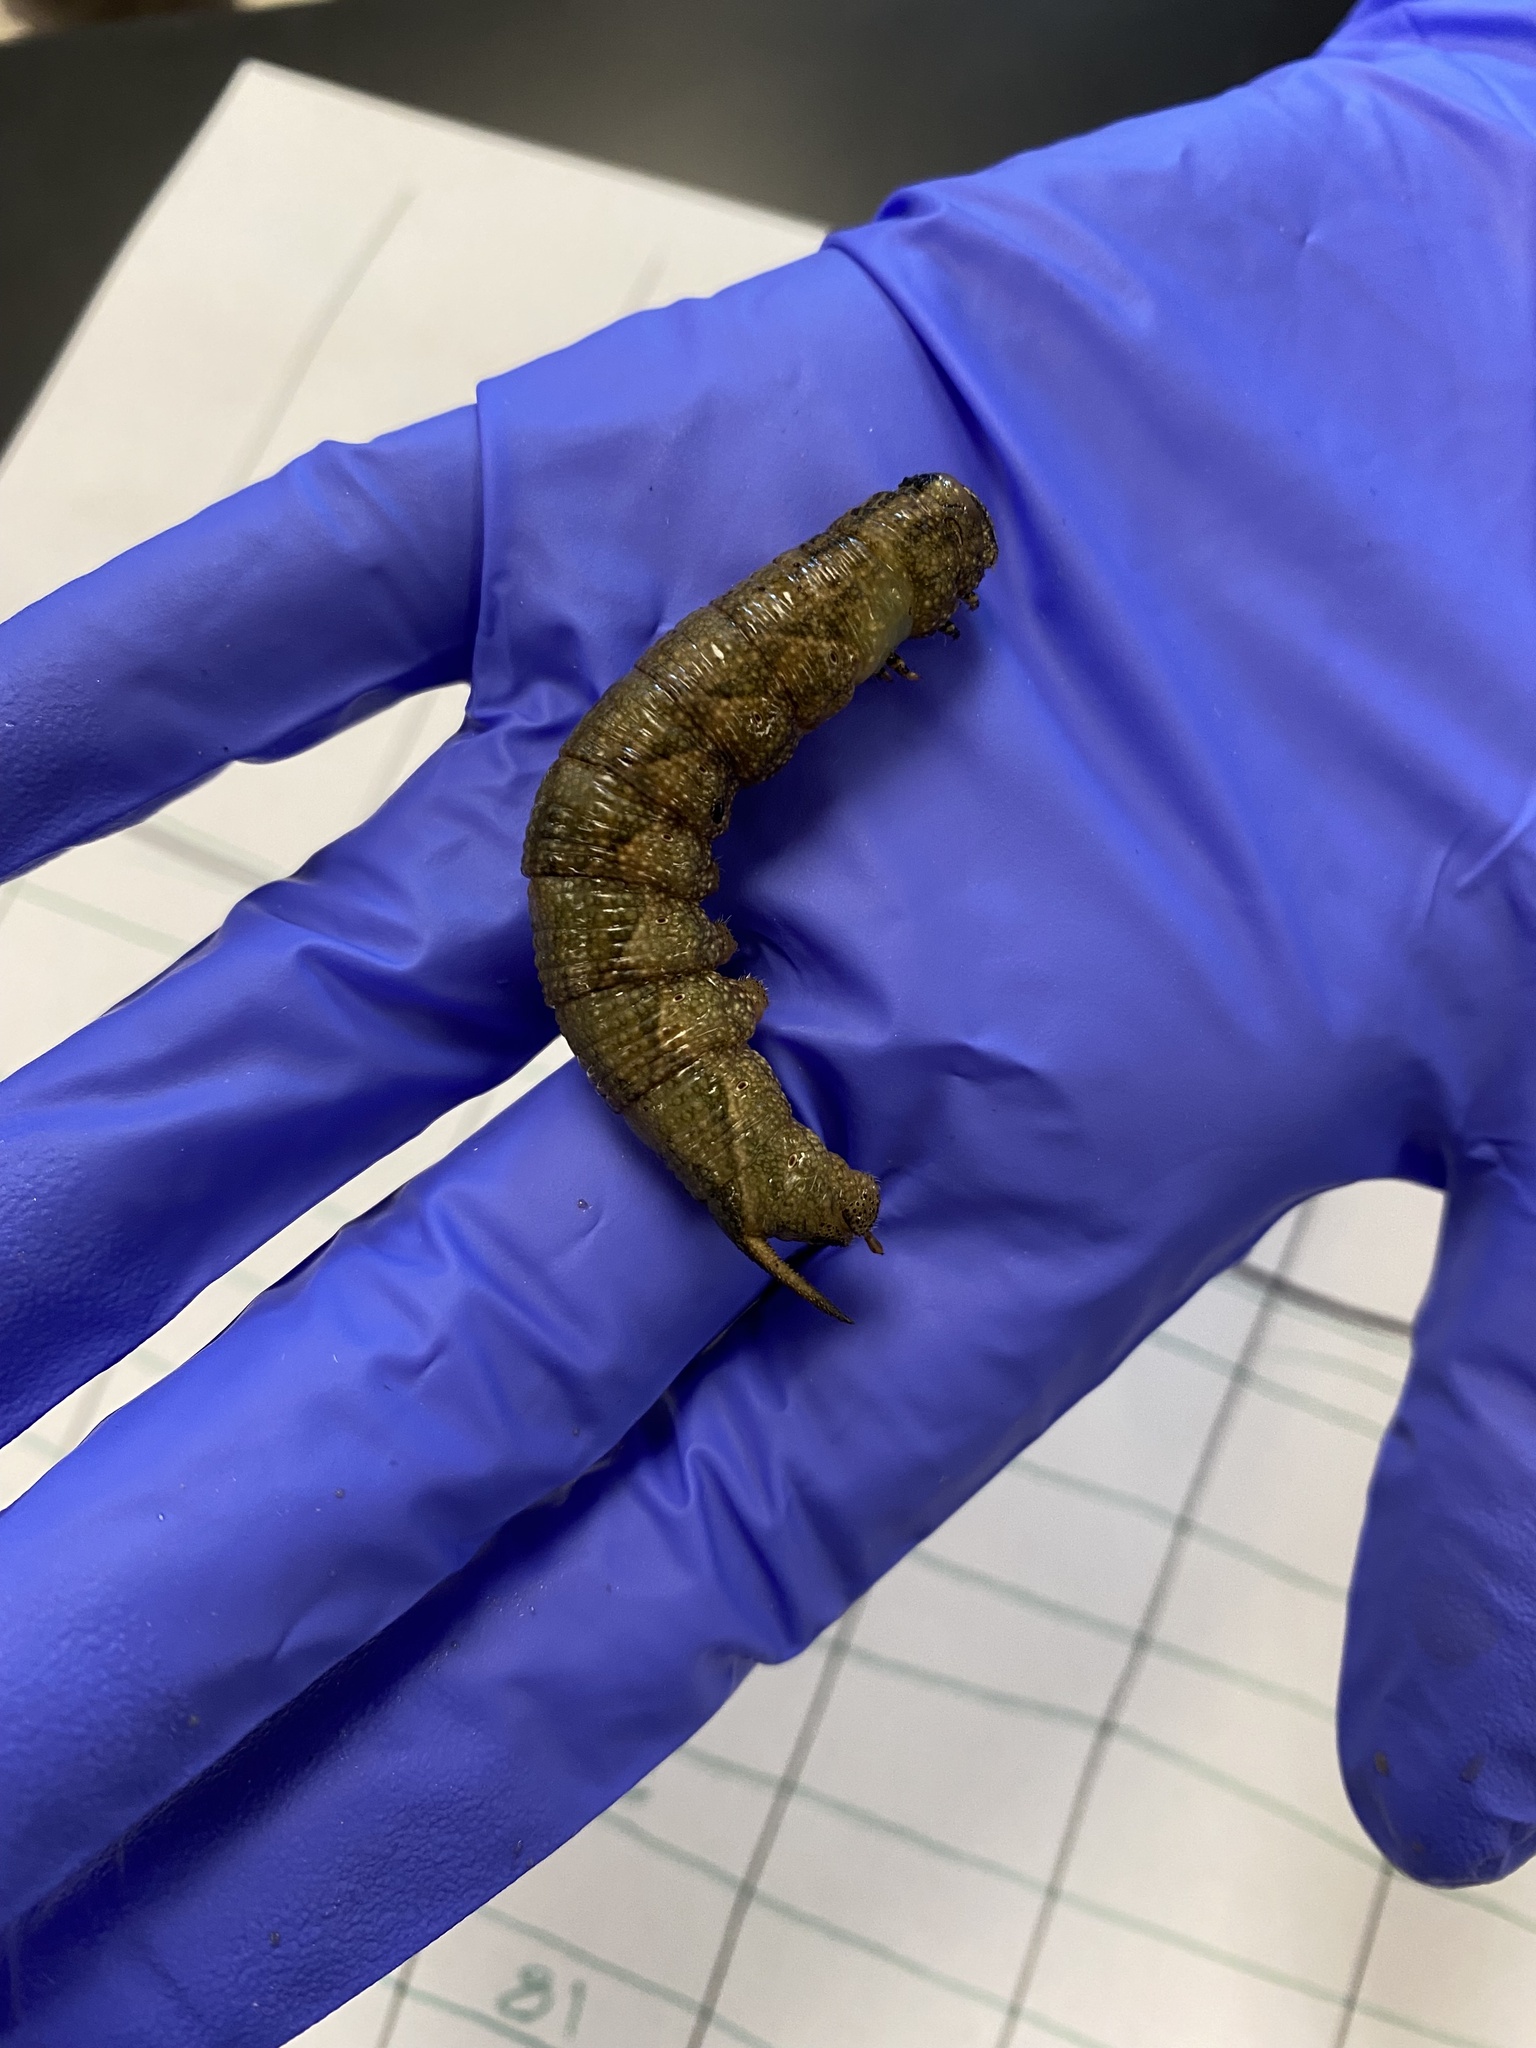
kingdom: Animalia
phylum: Arthropoda
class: Insecta
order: Lepidoptera
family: Sphingidae
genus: Ceratomia
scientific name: Ceratomia hageni
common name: Hagen's sphinx
